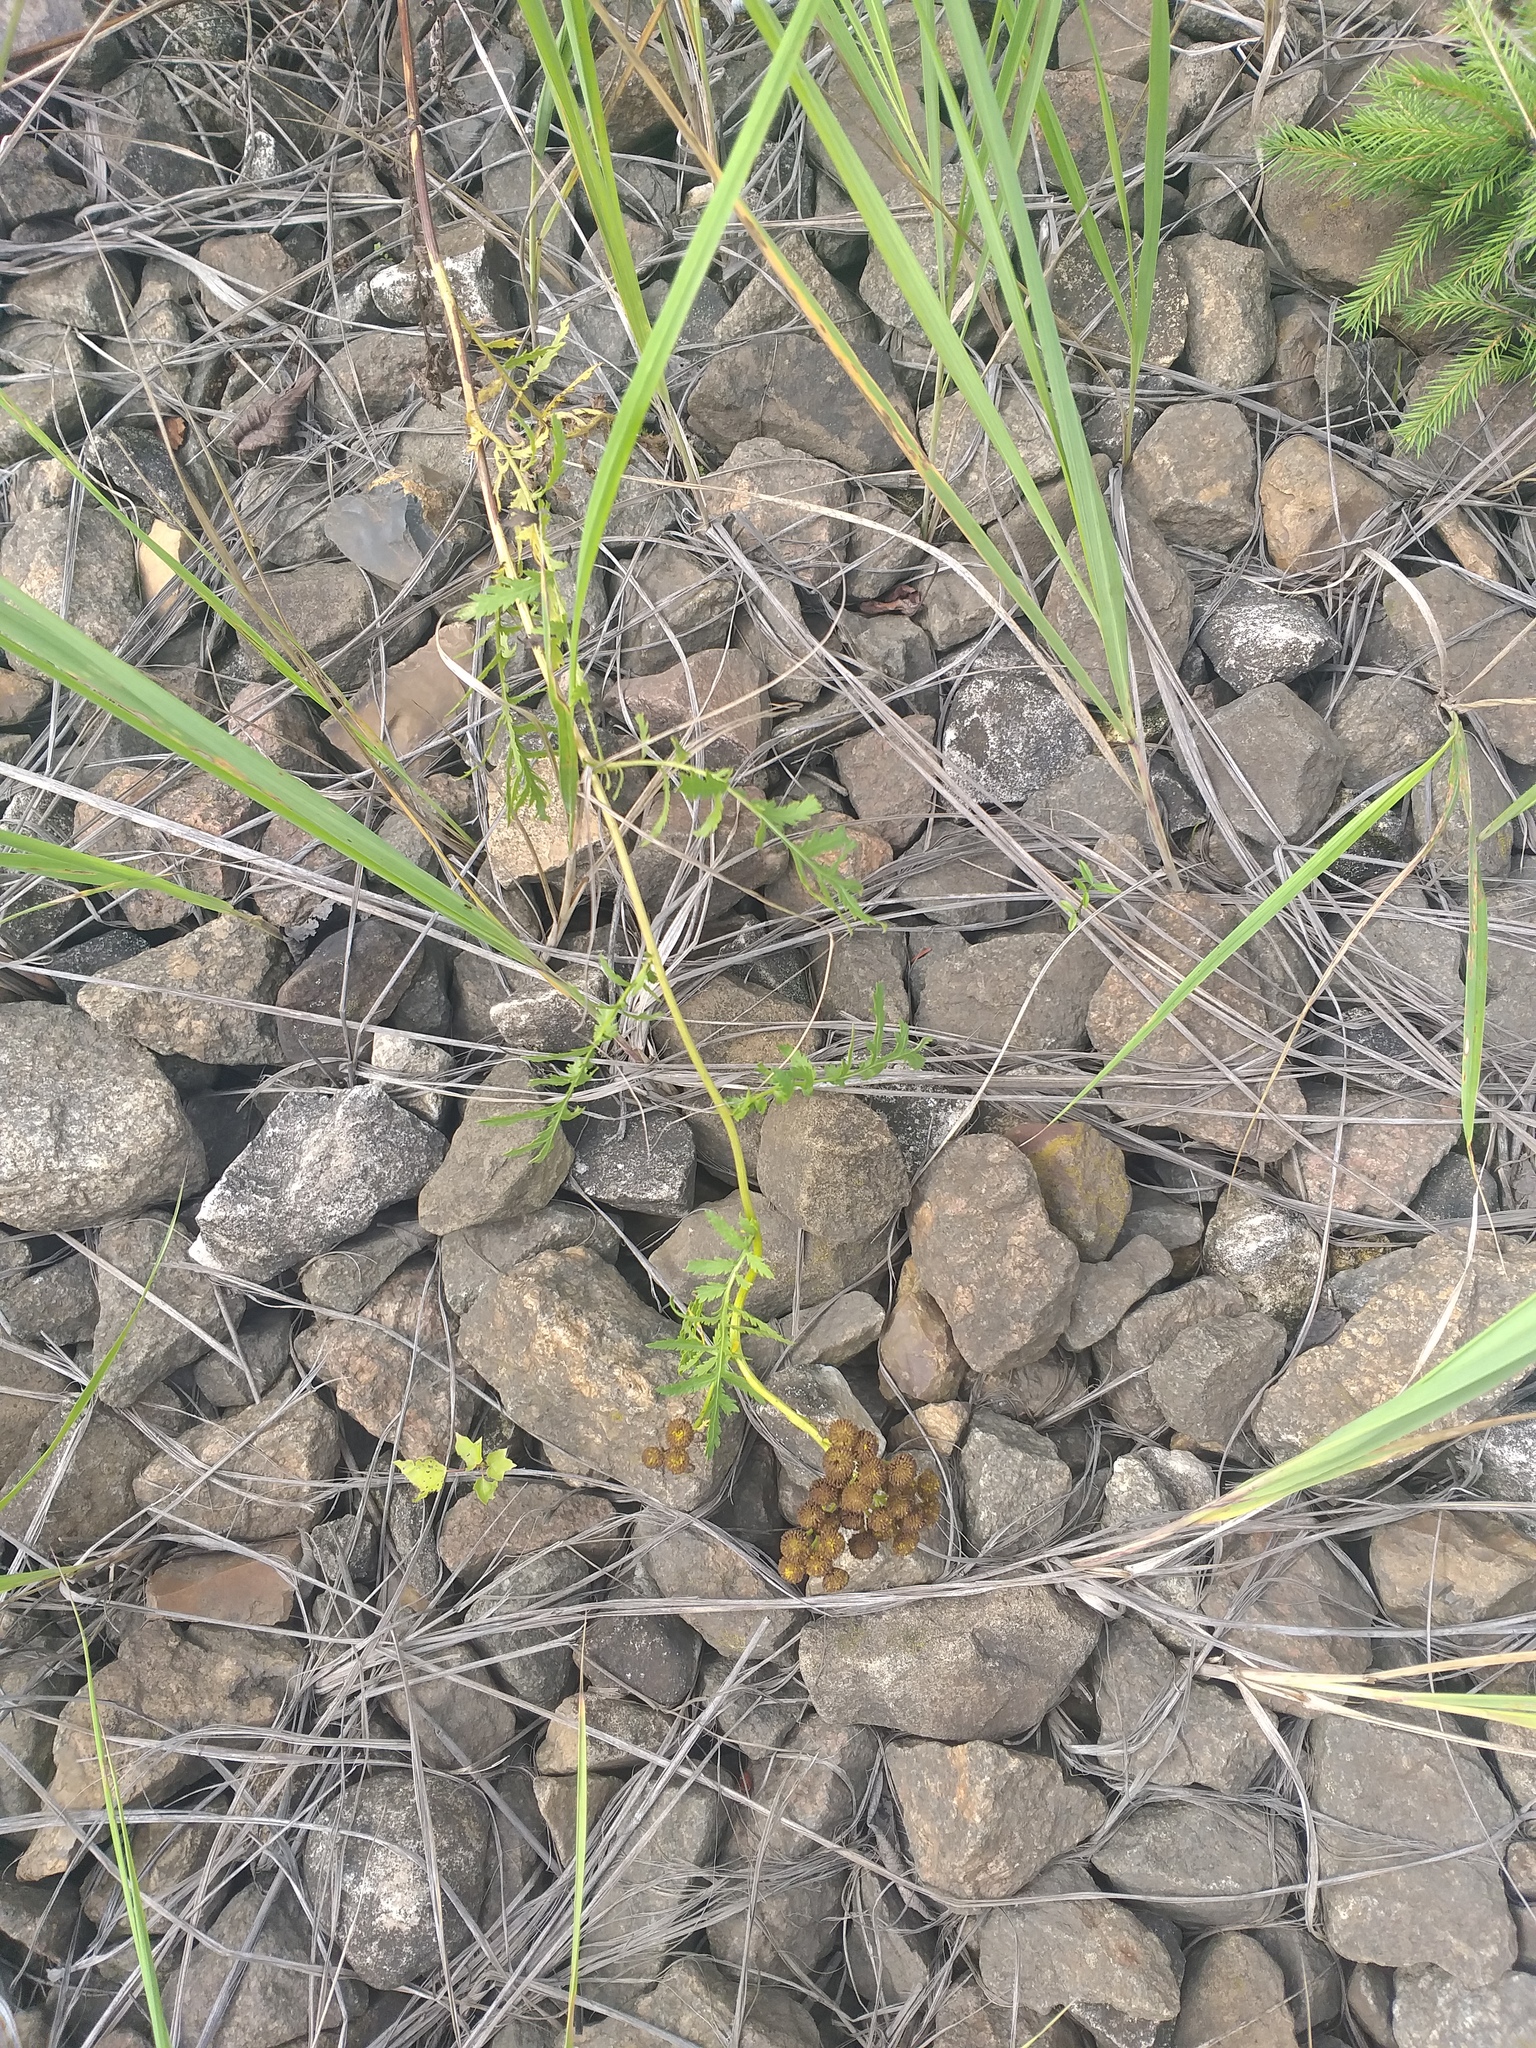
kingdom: Plantae
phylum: Tracheophyta
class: Magnoliopsida
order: Asterales
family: Asteraceae
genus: Tanacetum
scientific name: Tanacetum vulgare
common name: Common tansy
